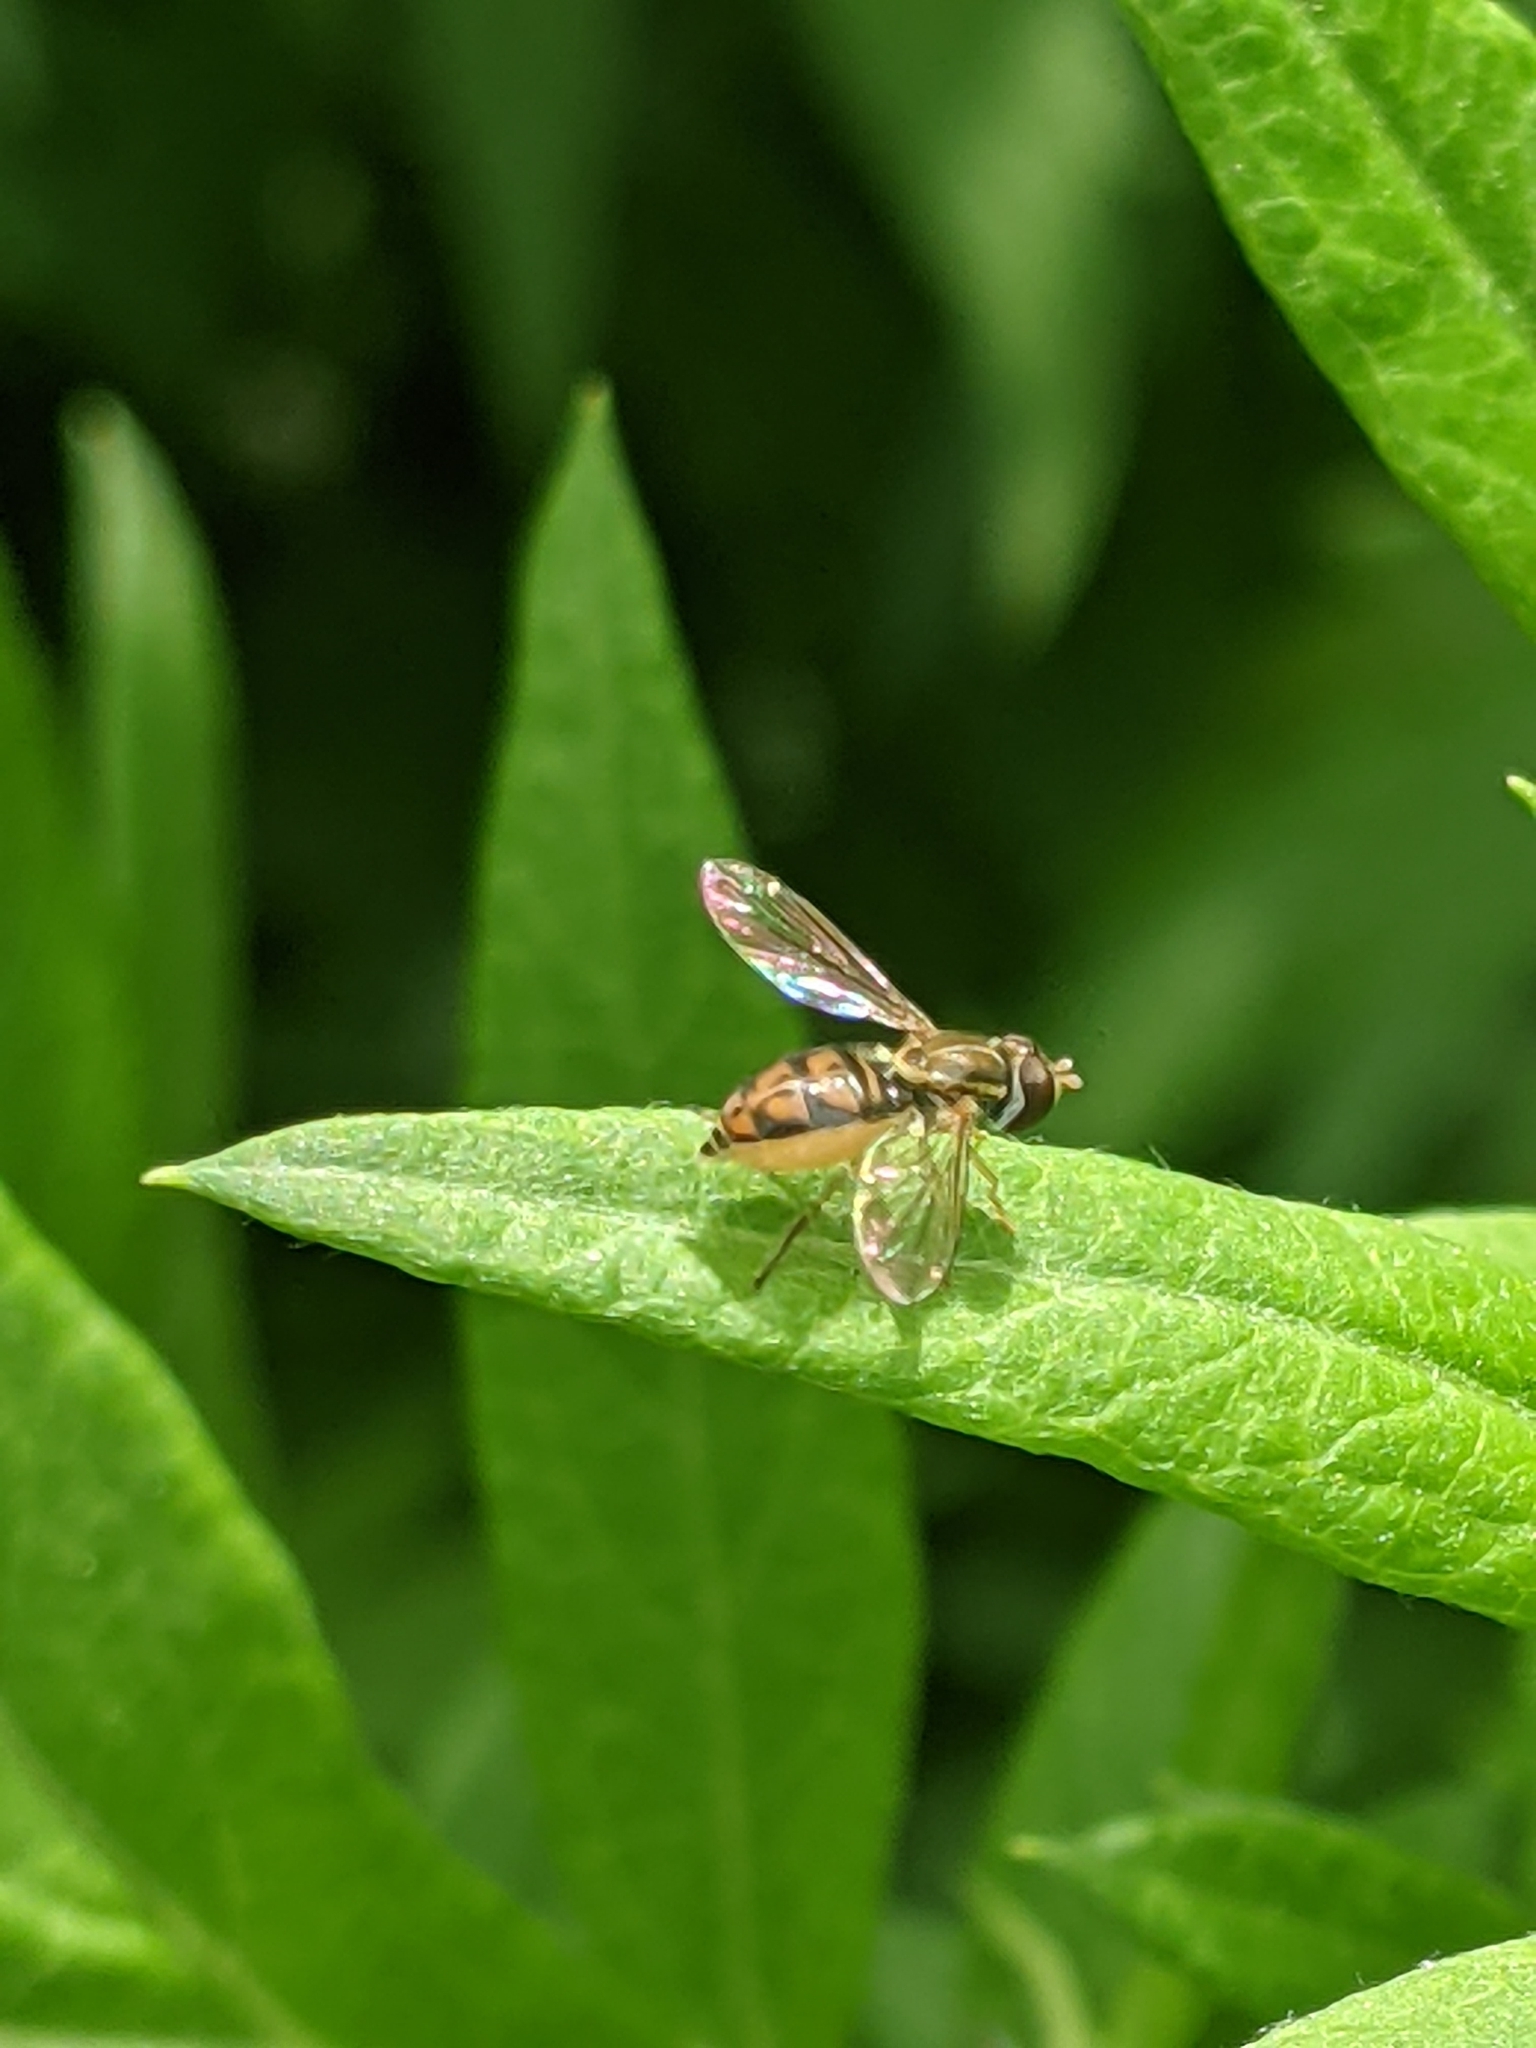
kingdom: Animalia
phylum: Arthropoda
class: Insecta
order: Diptera
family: Syrphidae
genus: Toxomerus
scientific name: Toxomerus marginatus
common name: Syrphid fly
